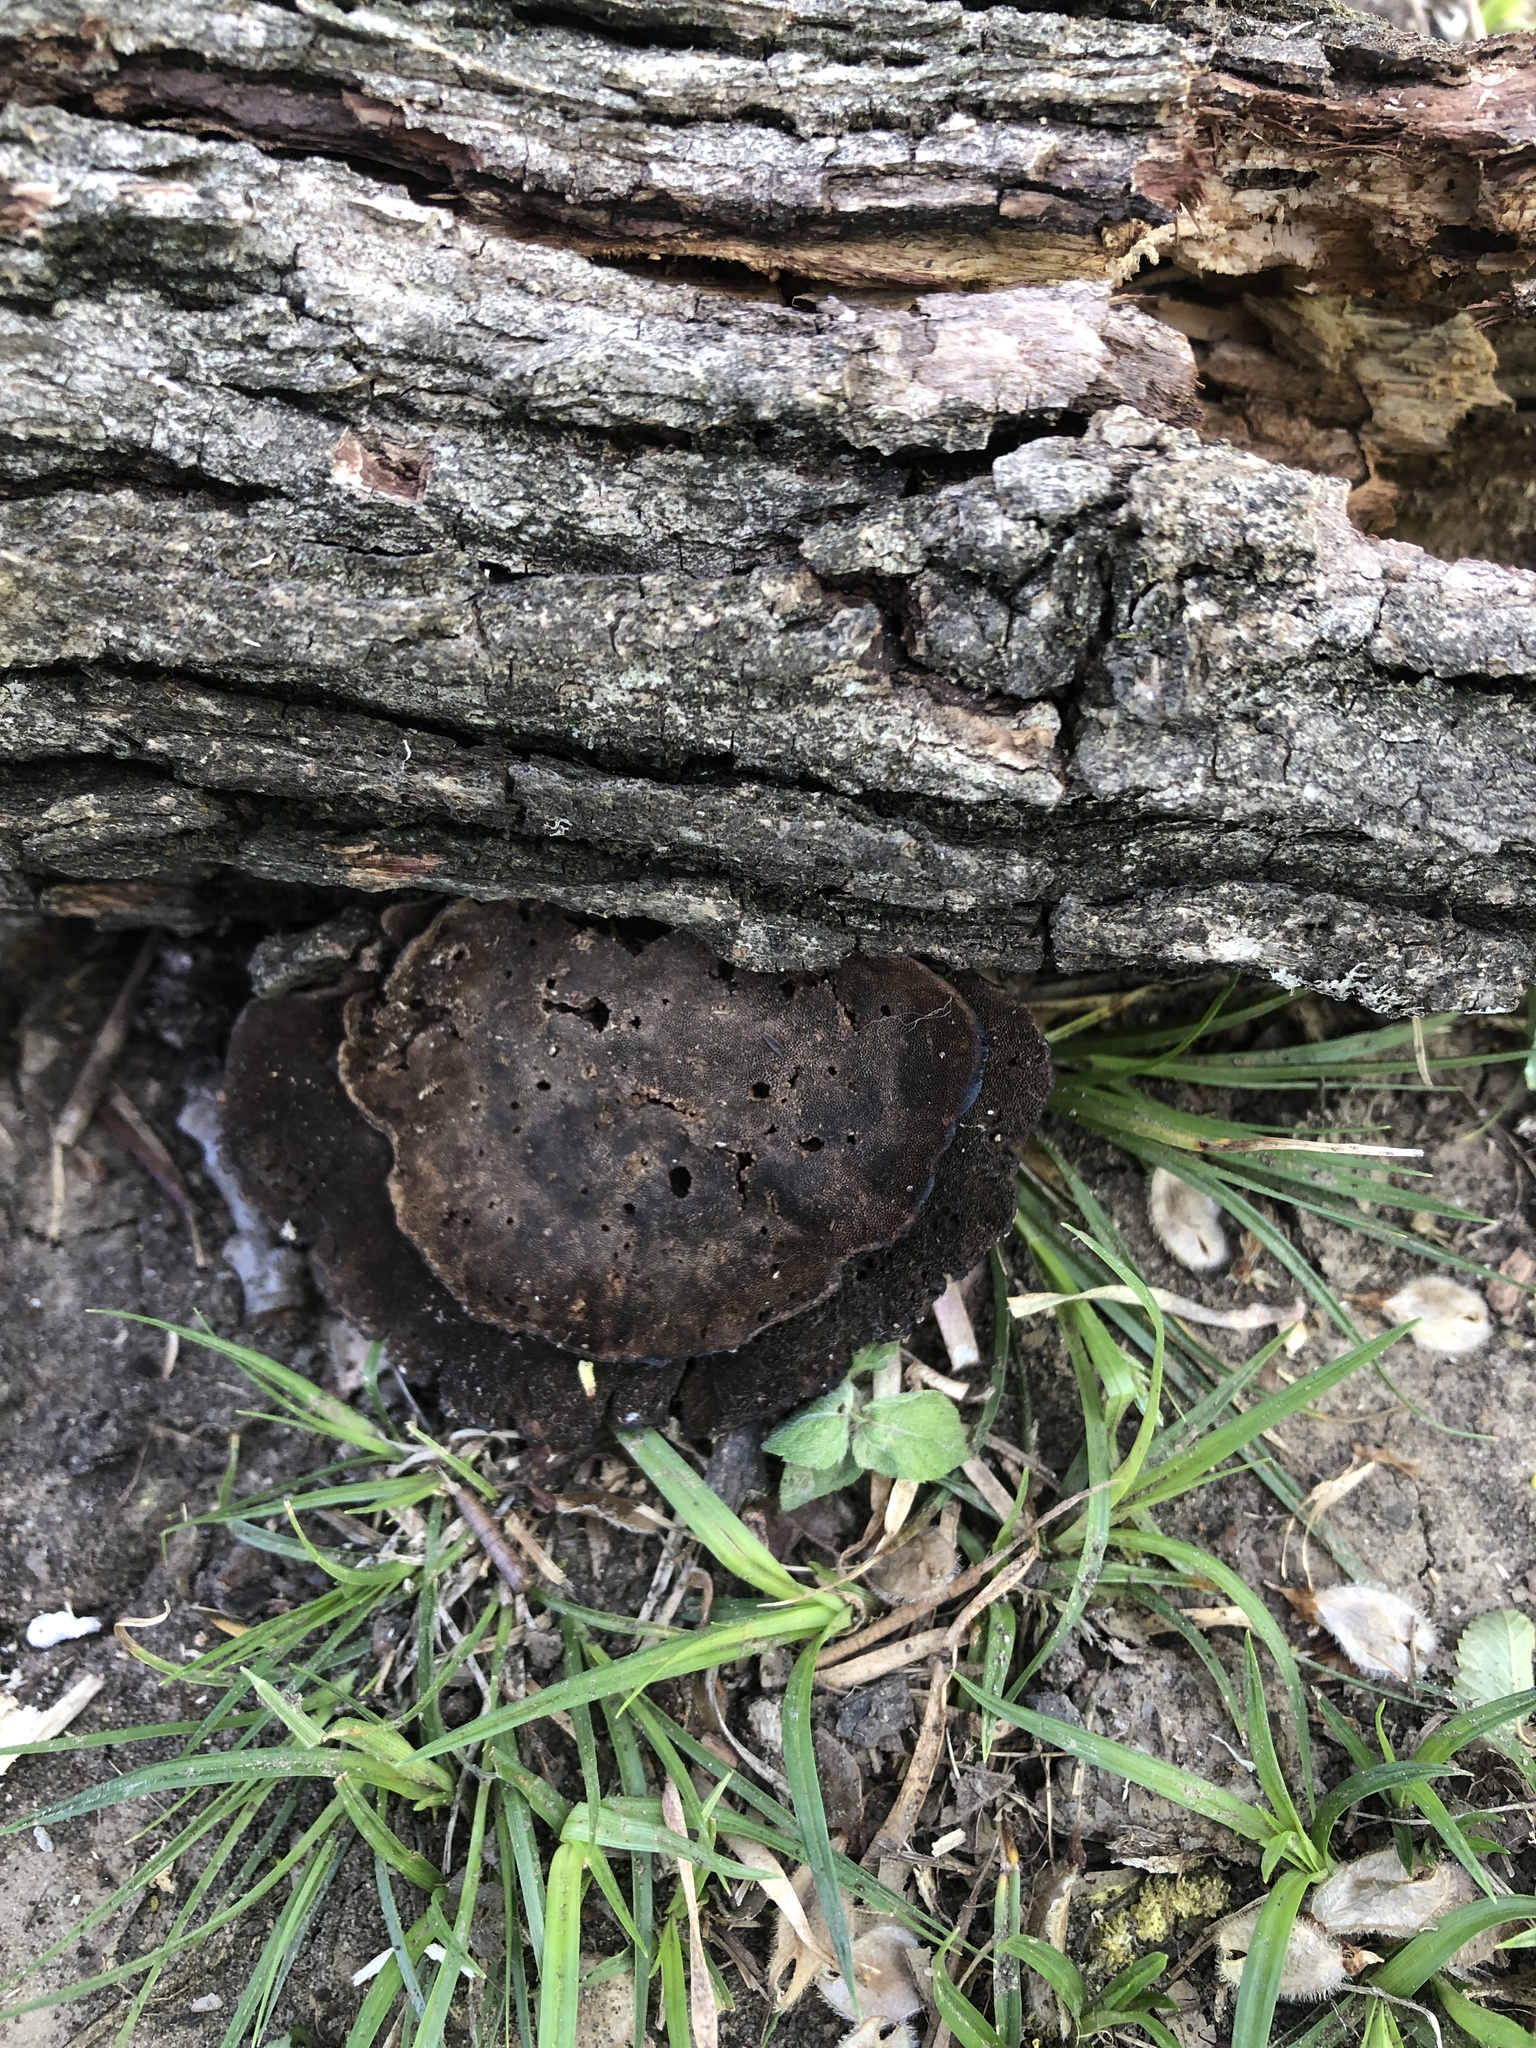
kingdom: Fungi
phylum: Basidiomycota
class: Agaricomycetes
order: Polyporales
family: Cerrenaceae
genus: Cerrena
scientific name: Cerrena hydnoides
